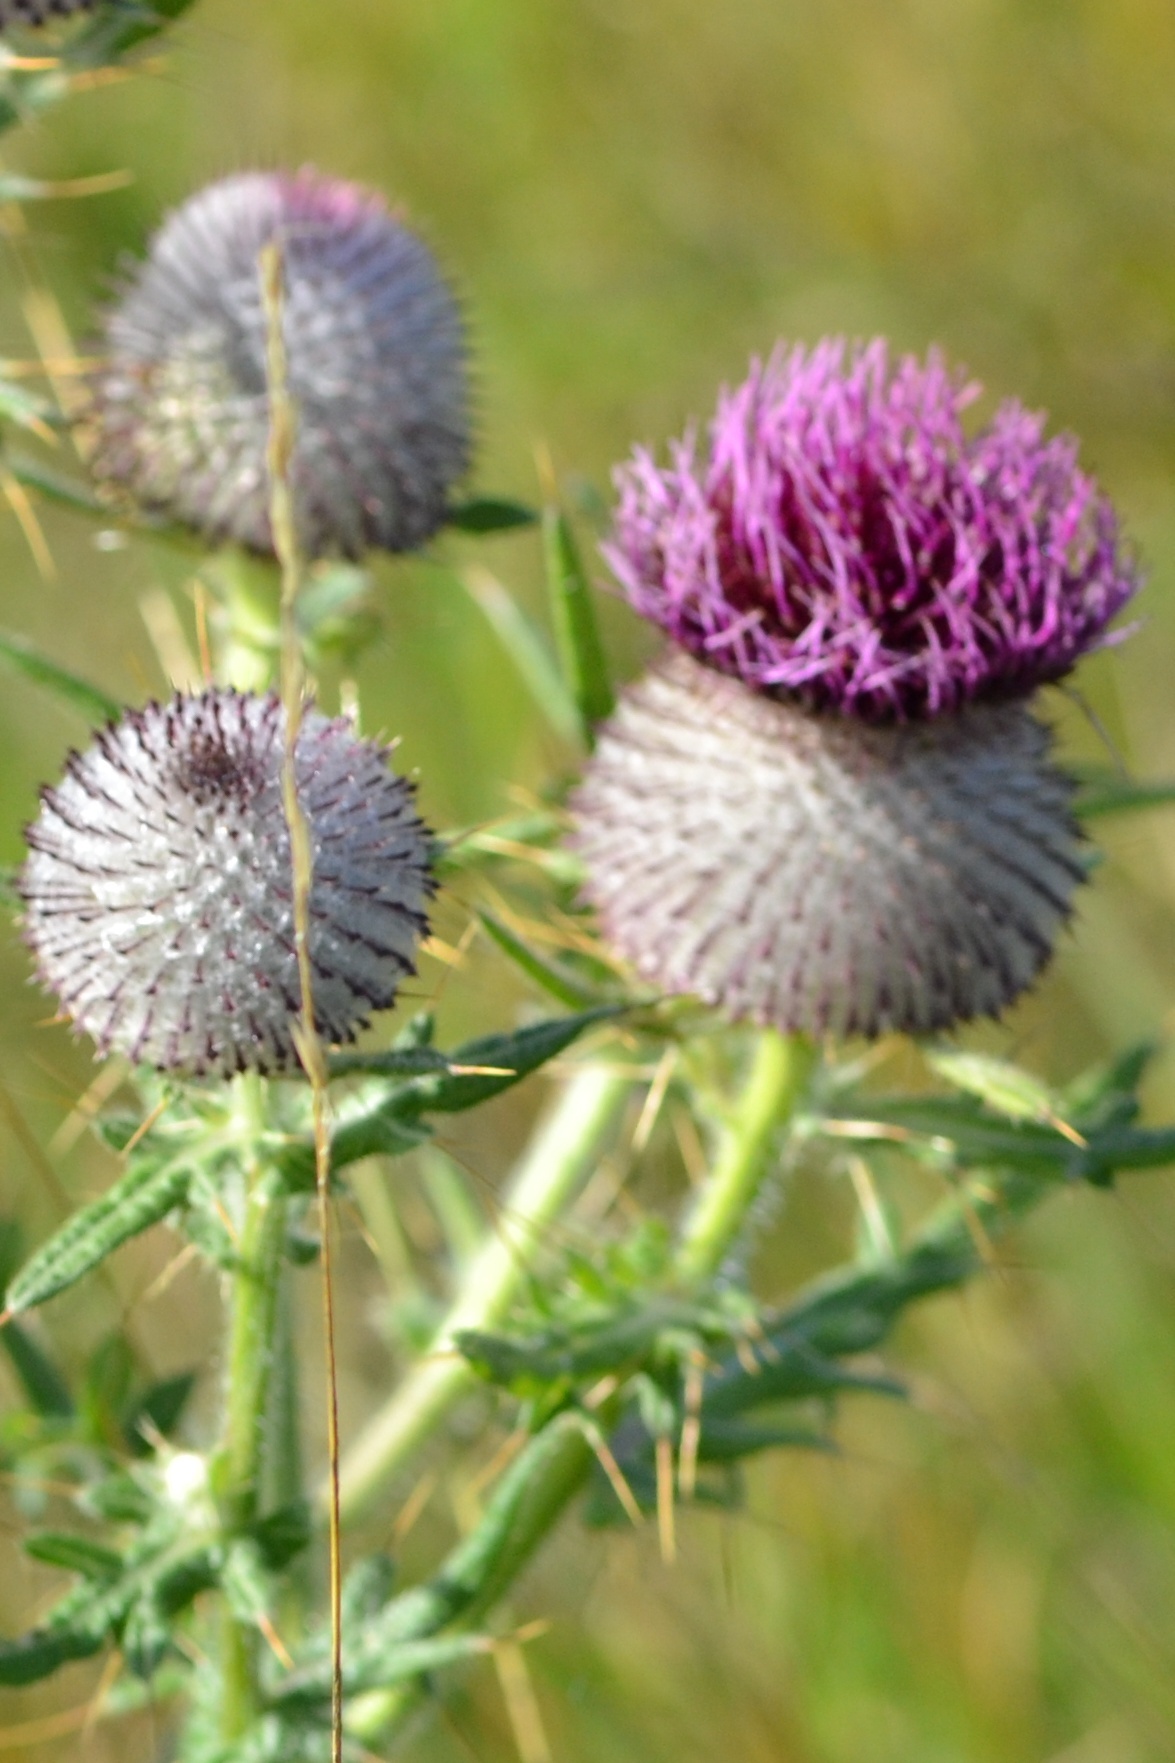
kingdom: Plantae
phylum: Tracheophyta
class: Magnoliopsida
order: Asterales
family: Asteraceae
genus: Lophiolepis
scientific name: Lophiolepis eriophora
